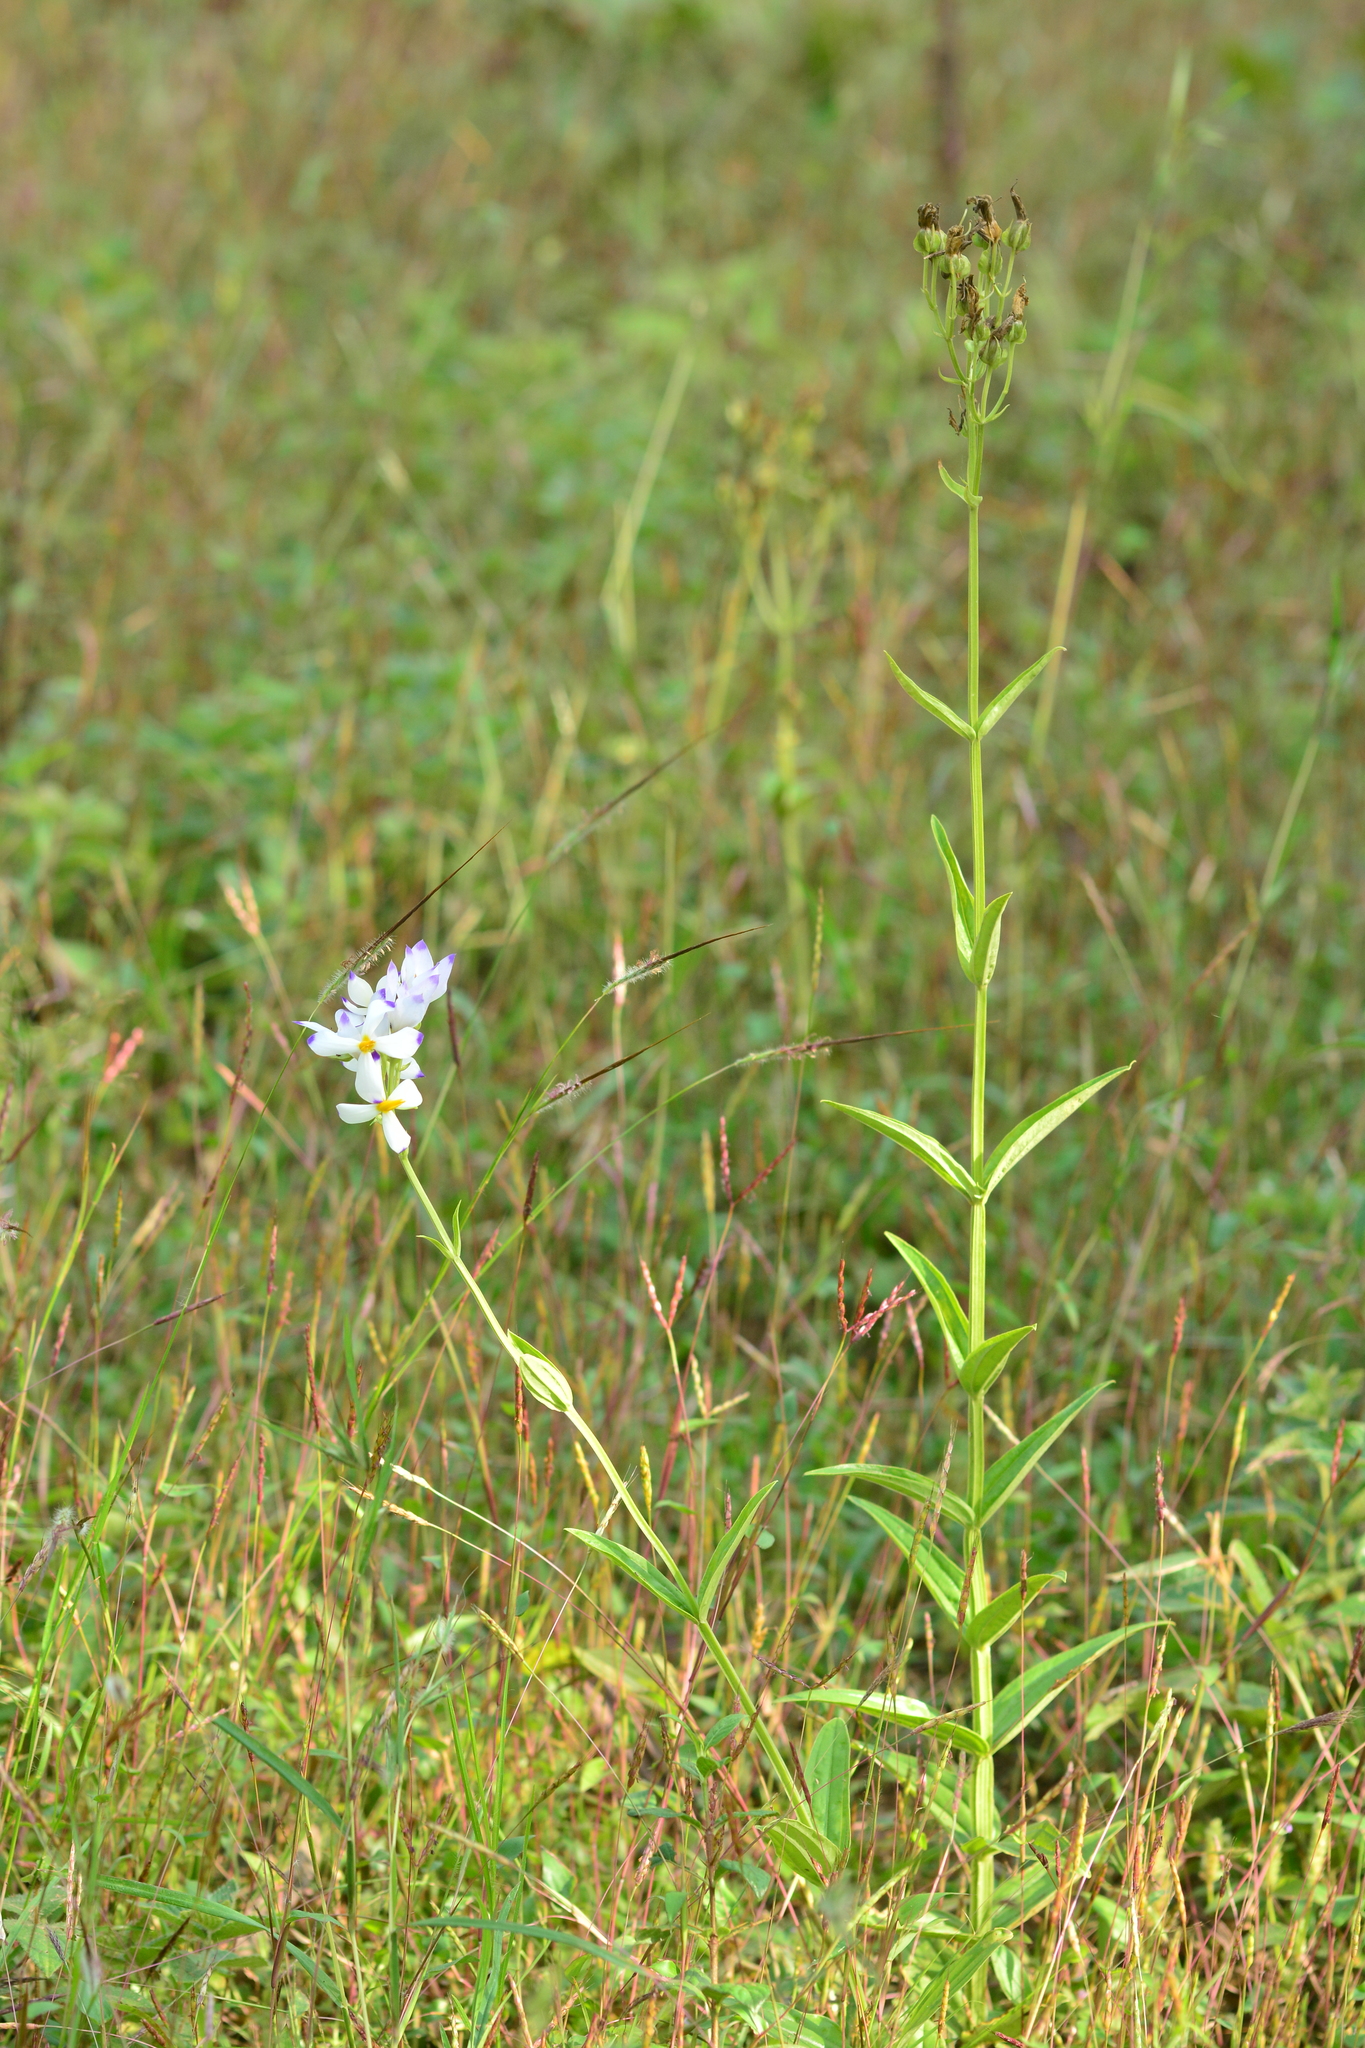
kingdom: Plantae
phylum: Tracheophyta
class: Magnoliopsida
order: Gentianales
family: Gentianaceae
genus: Exacum
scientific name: Exacum tetragonum
